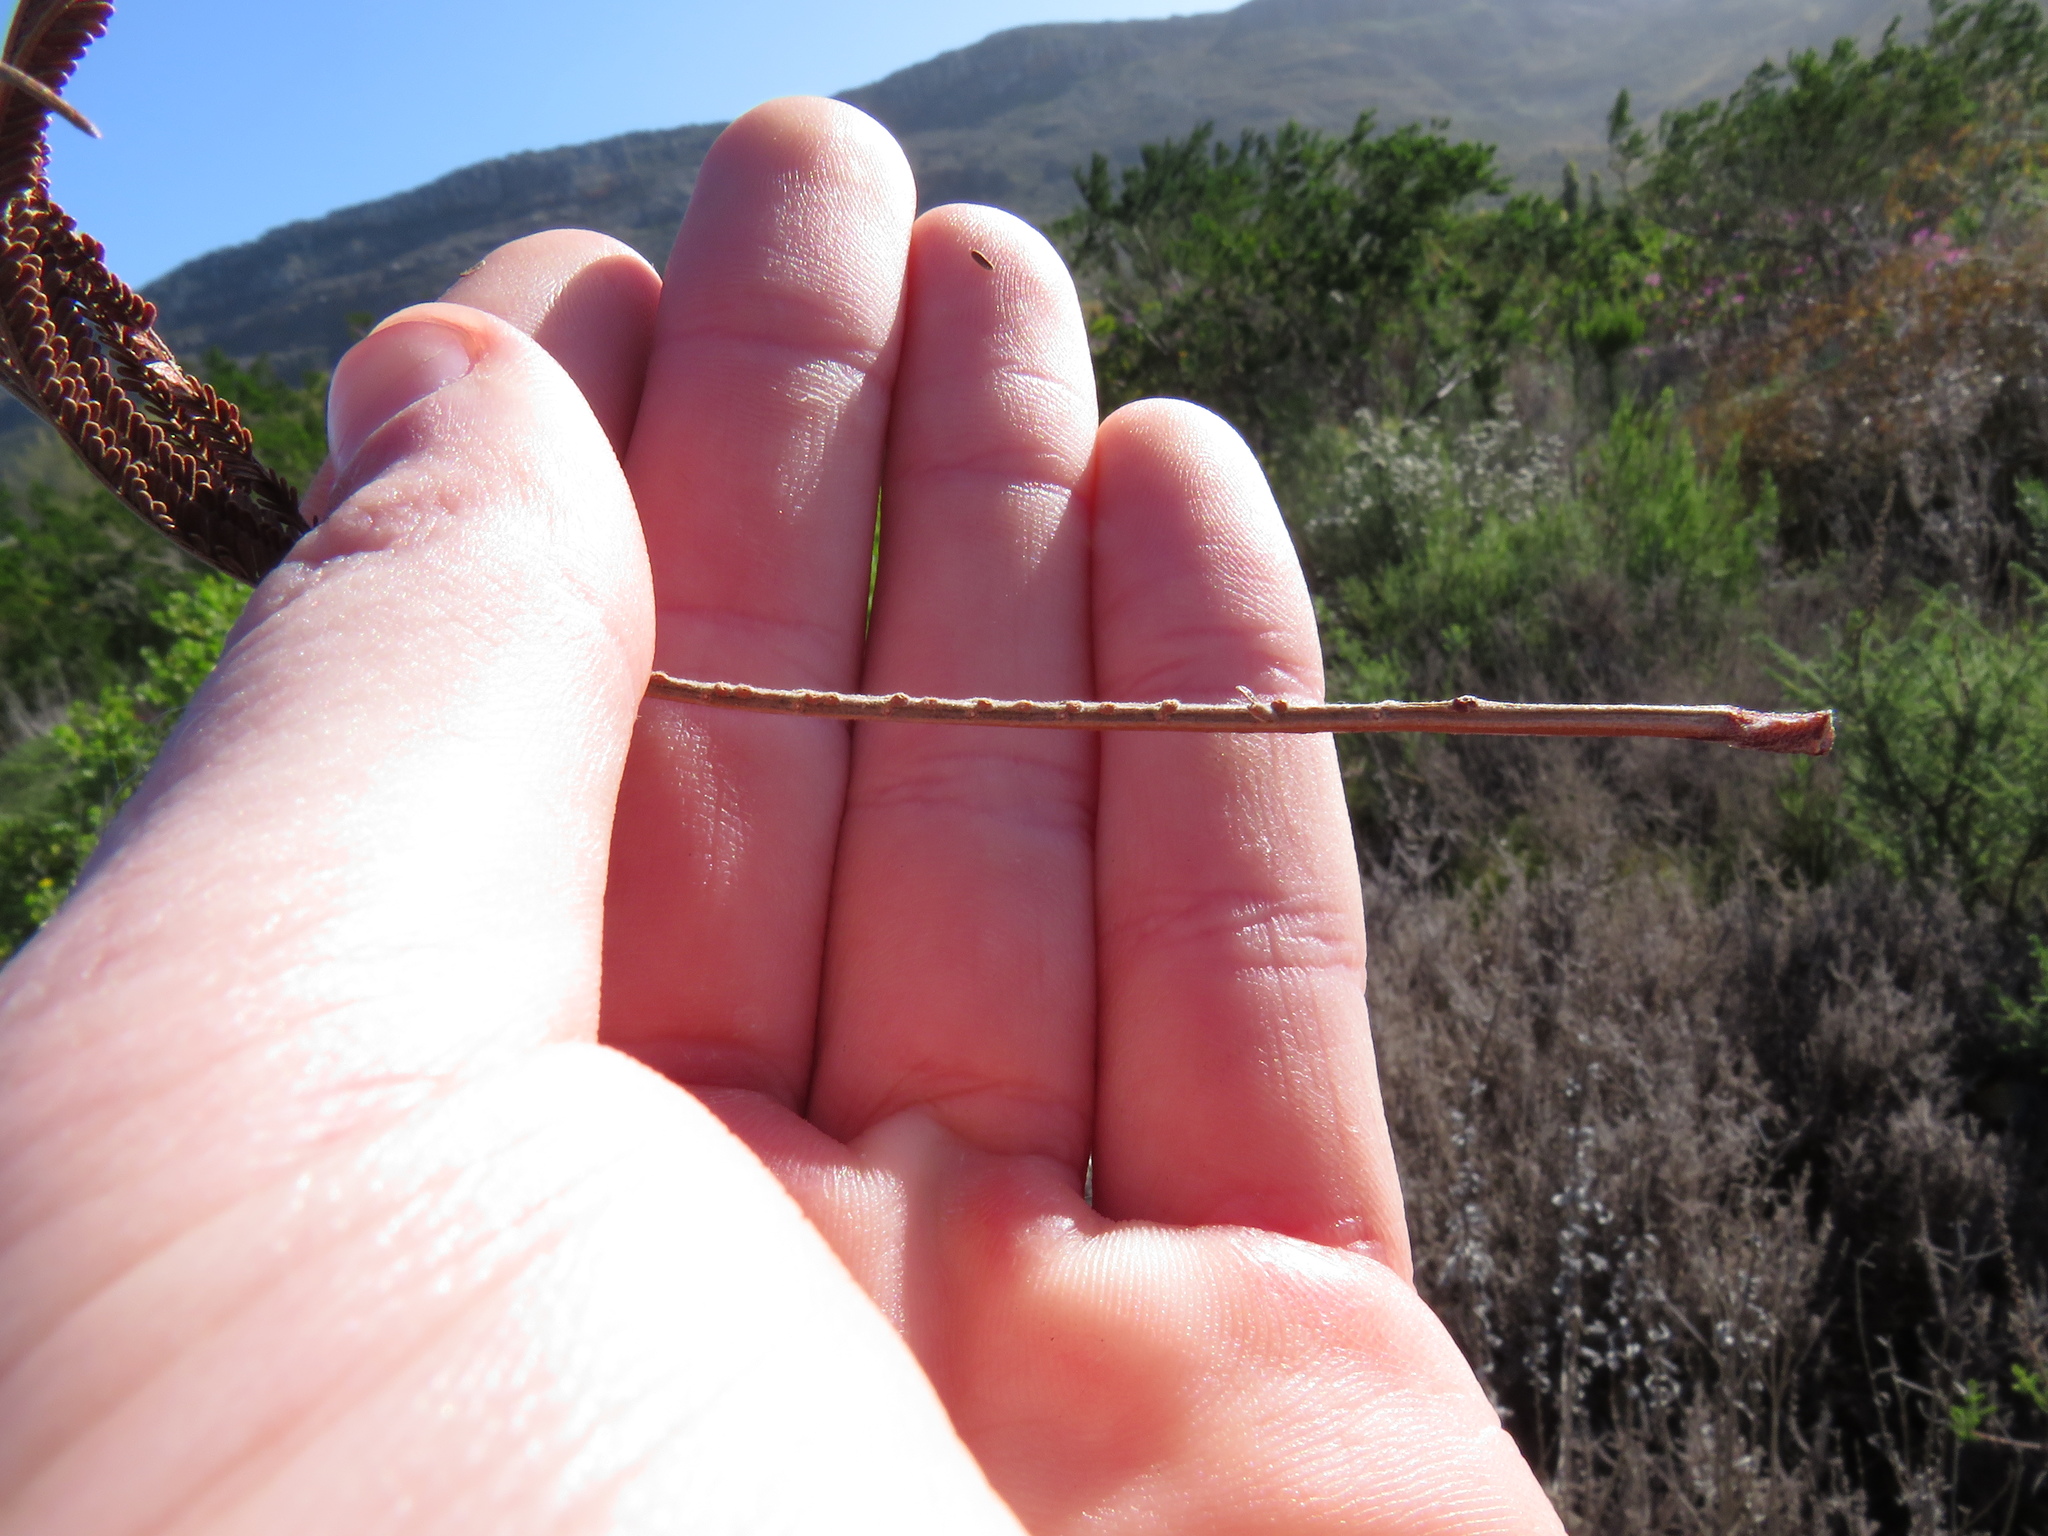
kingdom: Plantae
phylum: Tracheophyta
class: Magnoliopsida
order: Fabales
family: Fabaceae
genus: Acacia
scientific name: Acacia mearnsii
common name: Black wattle
